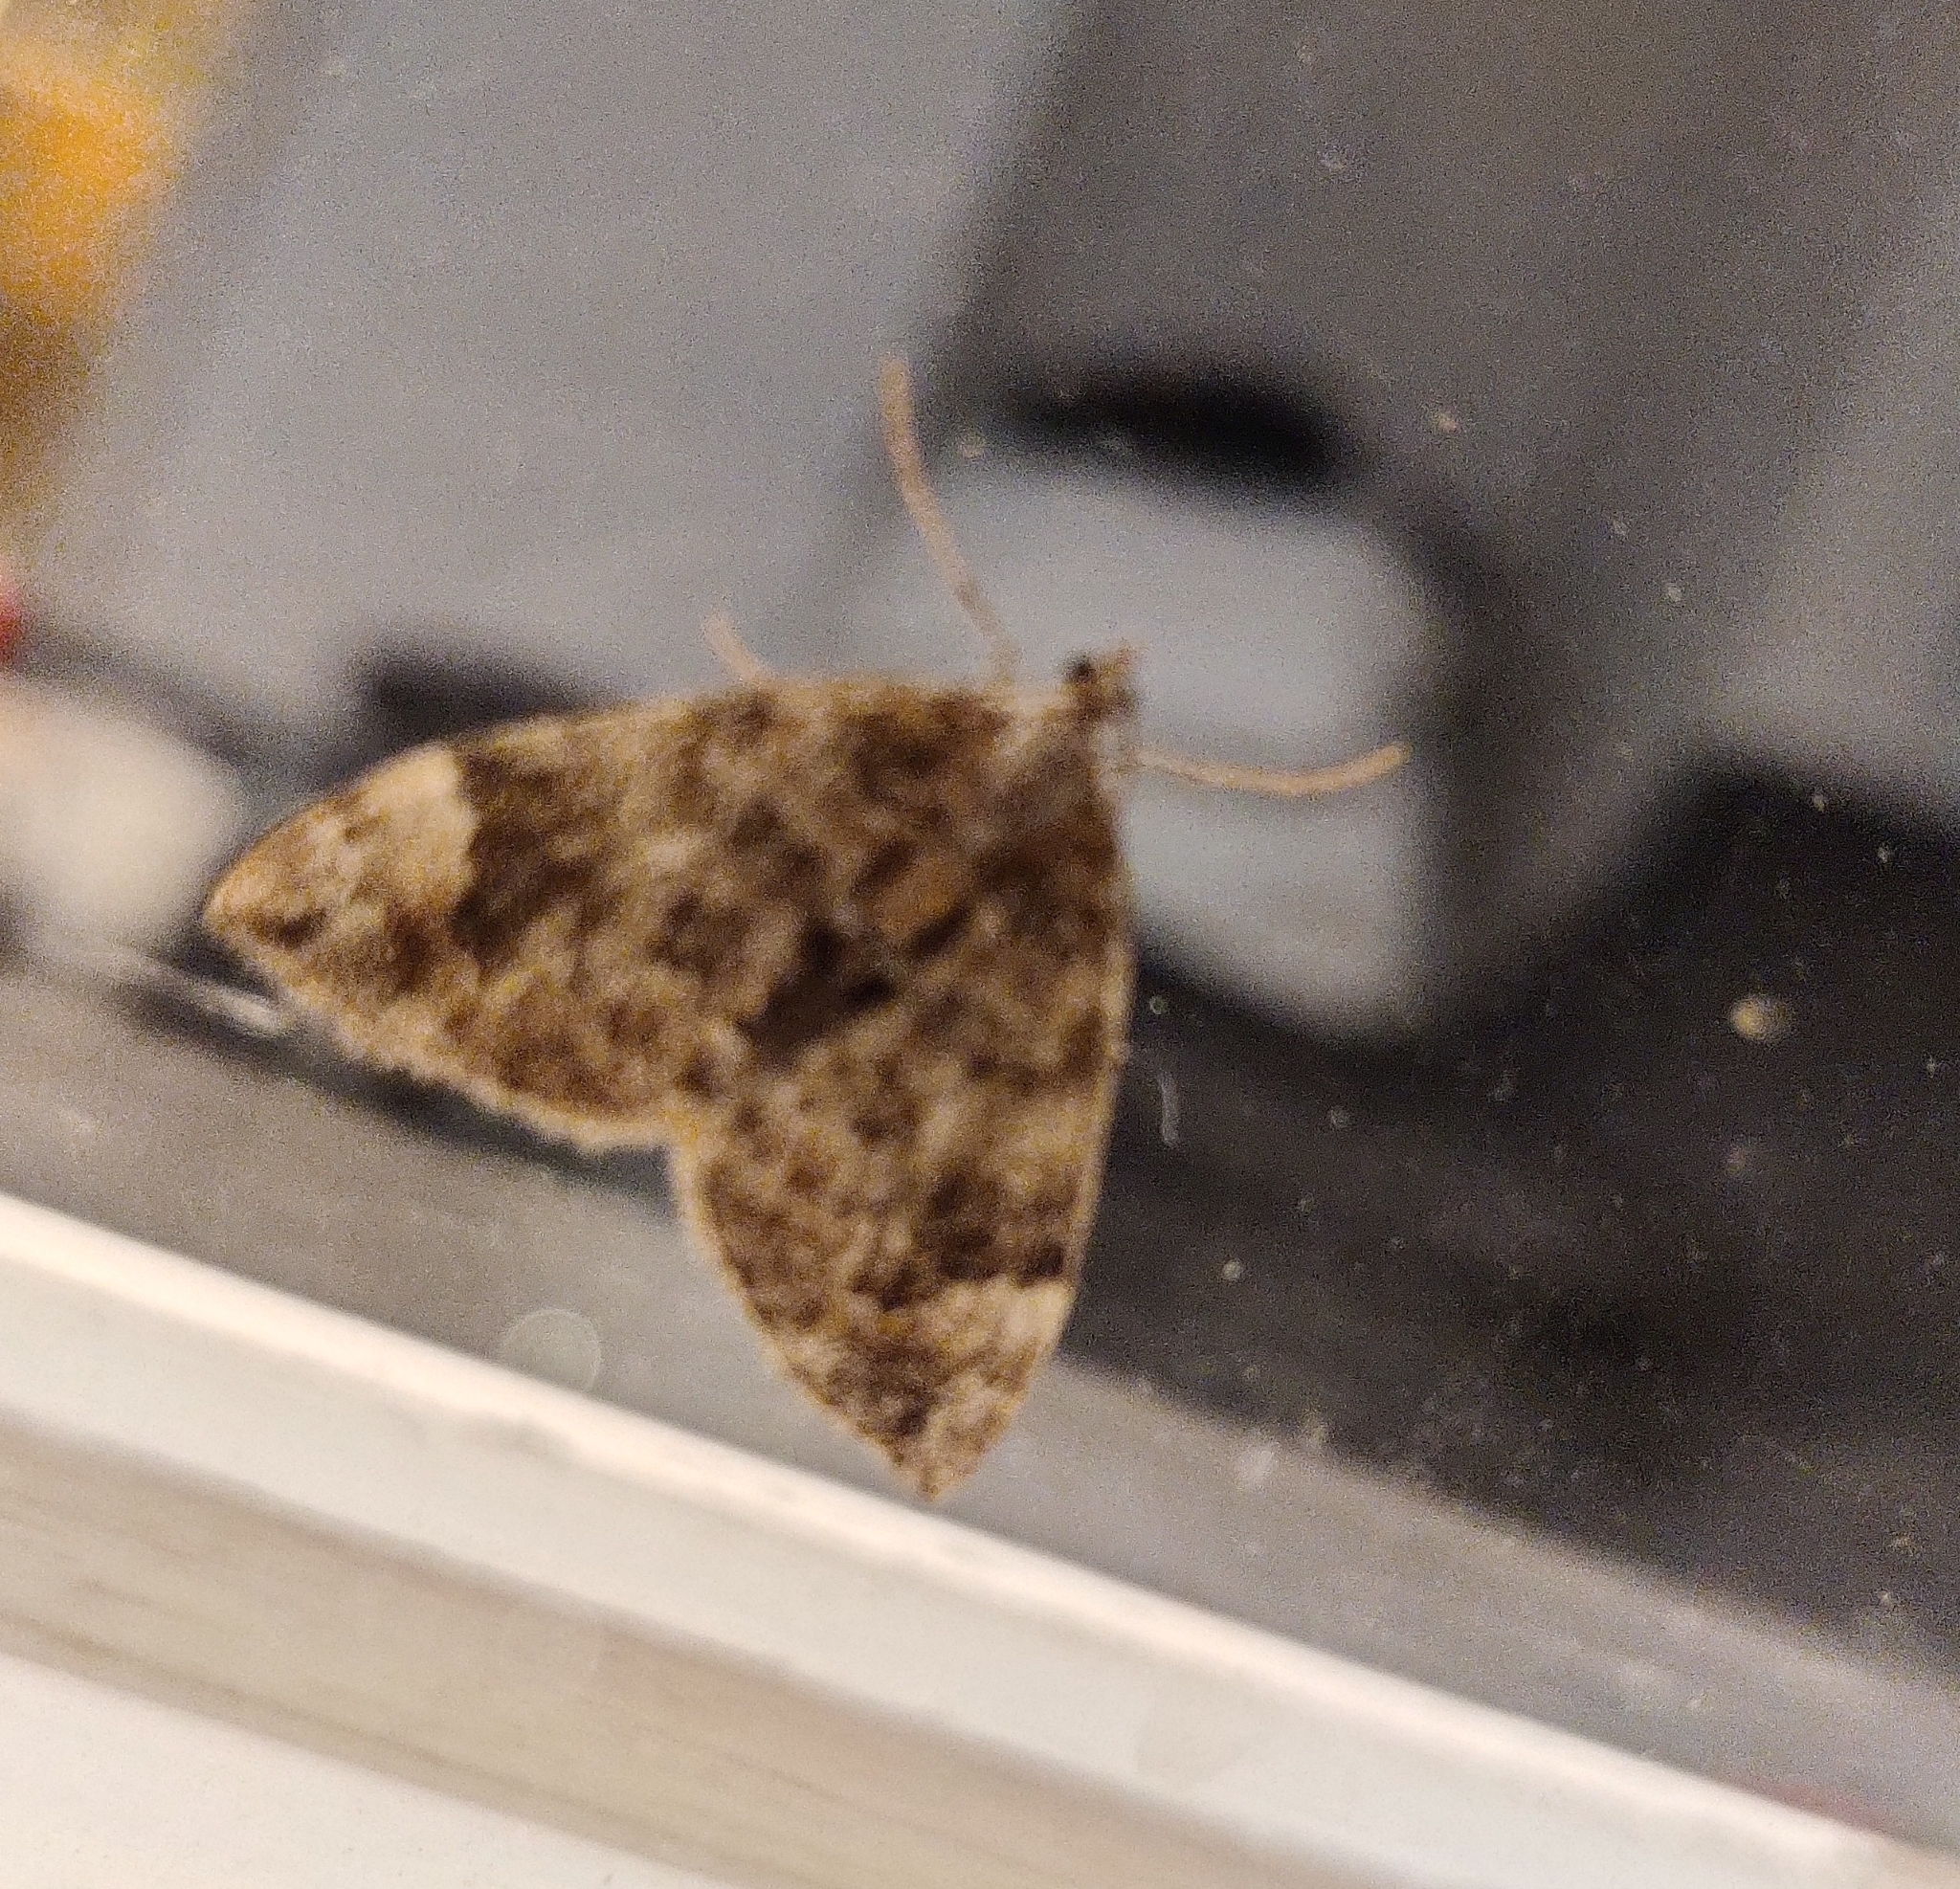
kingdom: Animalia
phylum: Arthropoda
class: Insecta
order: Lepidoptera
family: Geometridae
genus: Dysstroma
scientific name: Dysstroma citrata
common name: Dark marbled carpet
